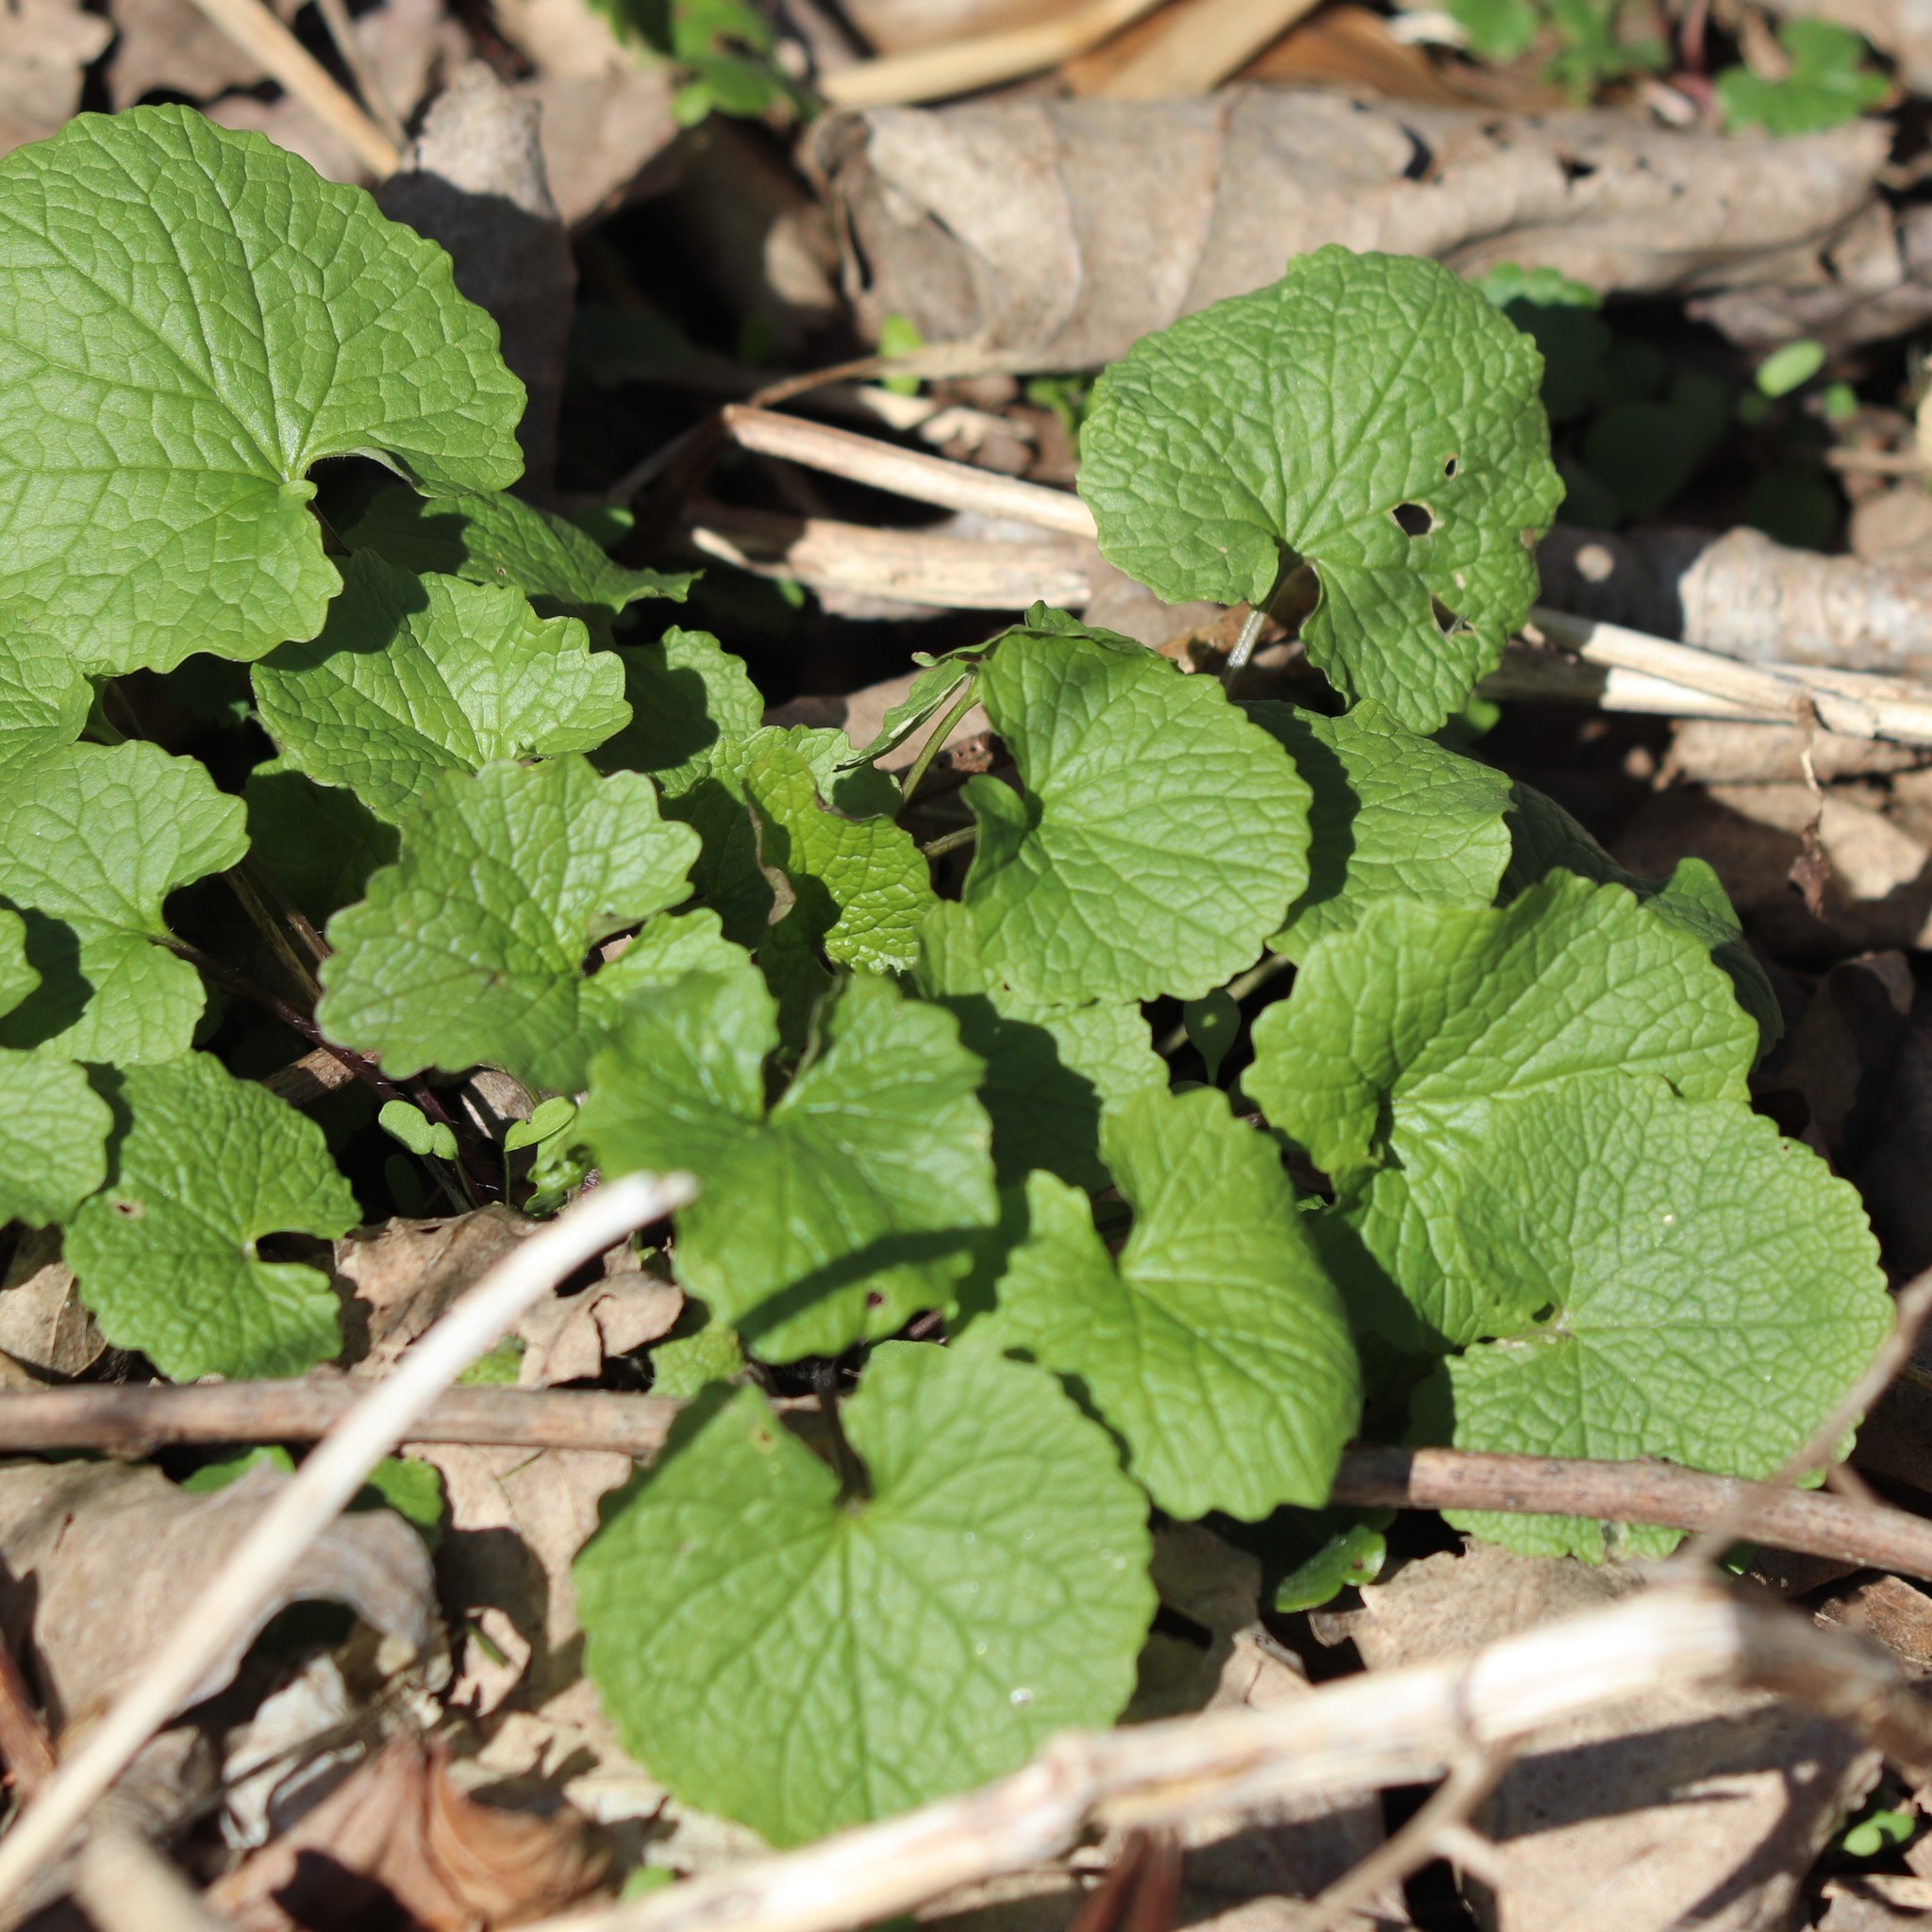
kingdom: Plantae
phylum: Tracheophyta
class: Magnoliopsida
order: Brassicales
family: Brassicaceae
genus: Alliaria
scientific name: Alliaria petiolata
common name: Garlic mustard
